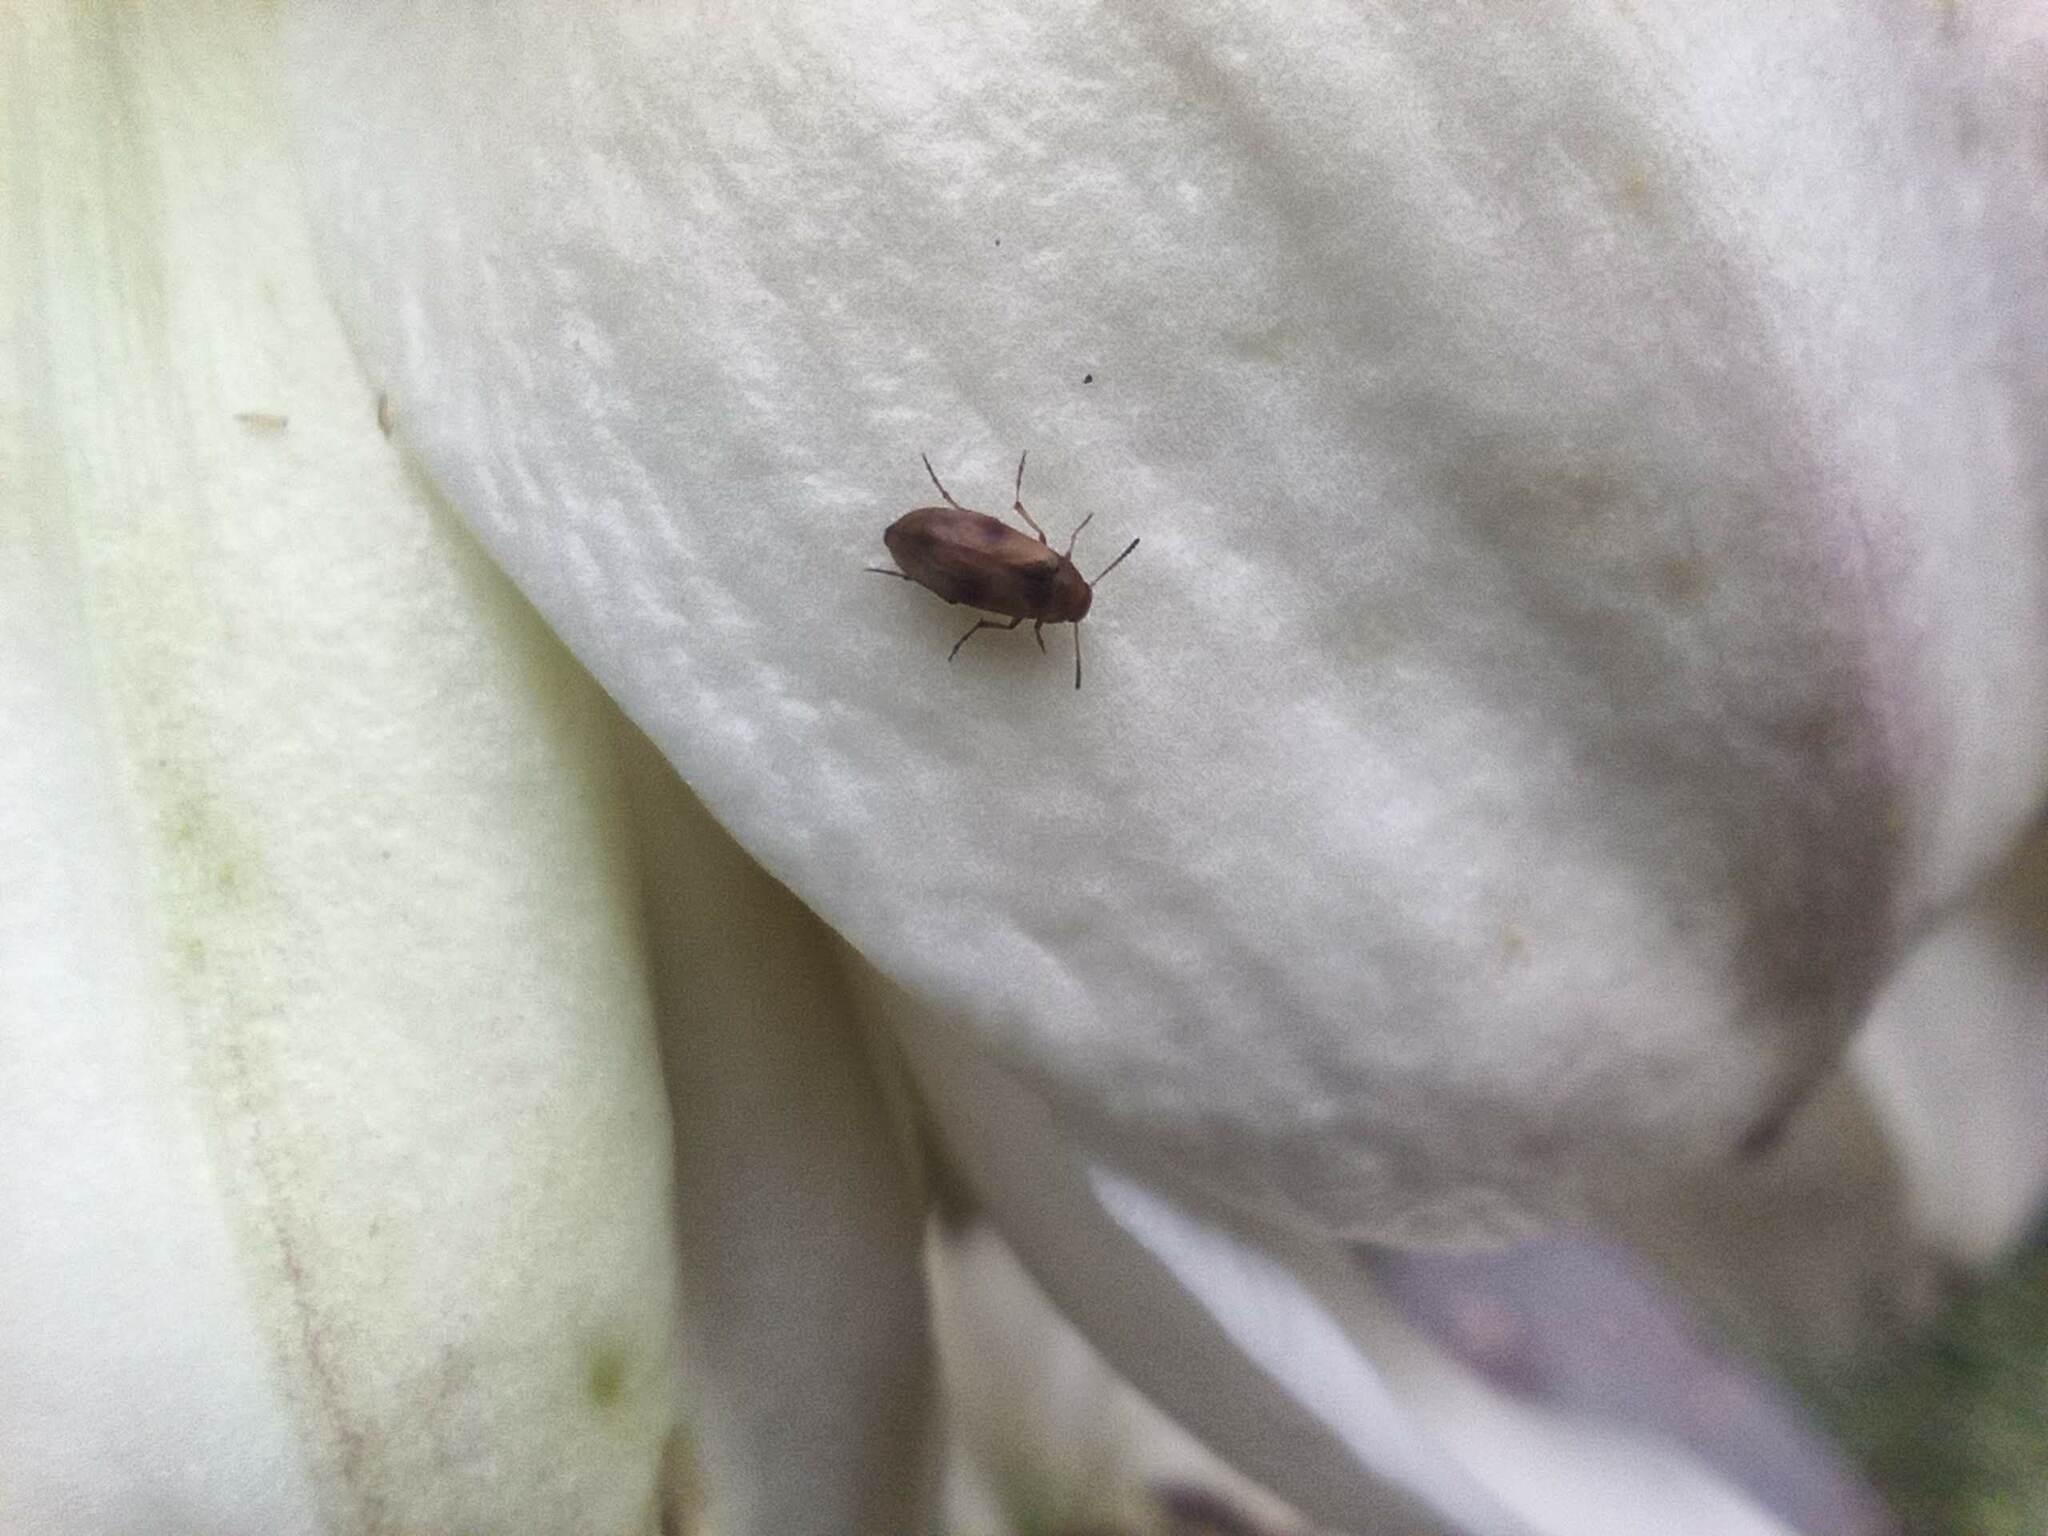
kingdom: Animalia
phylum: Arthropoda
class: Insecta
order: Coleoptera
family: Scraptiidae
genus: Anaspis
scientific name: Anaspis maculata
